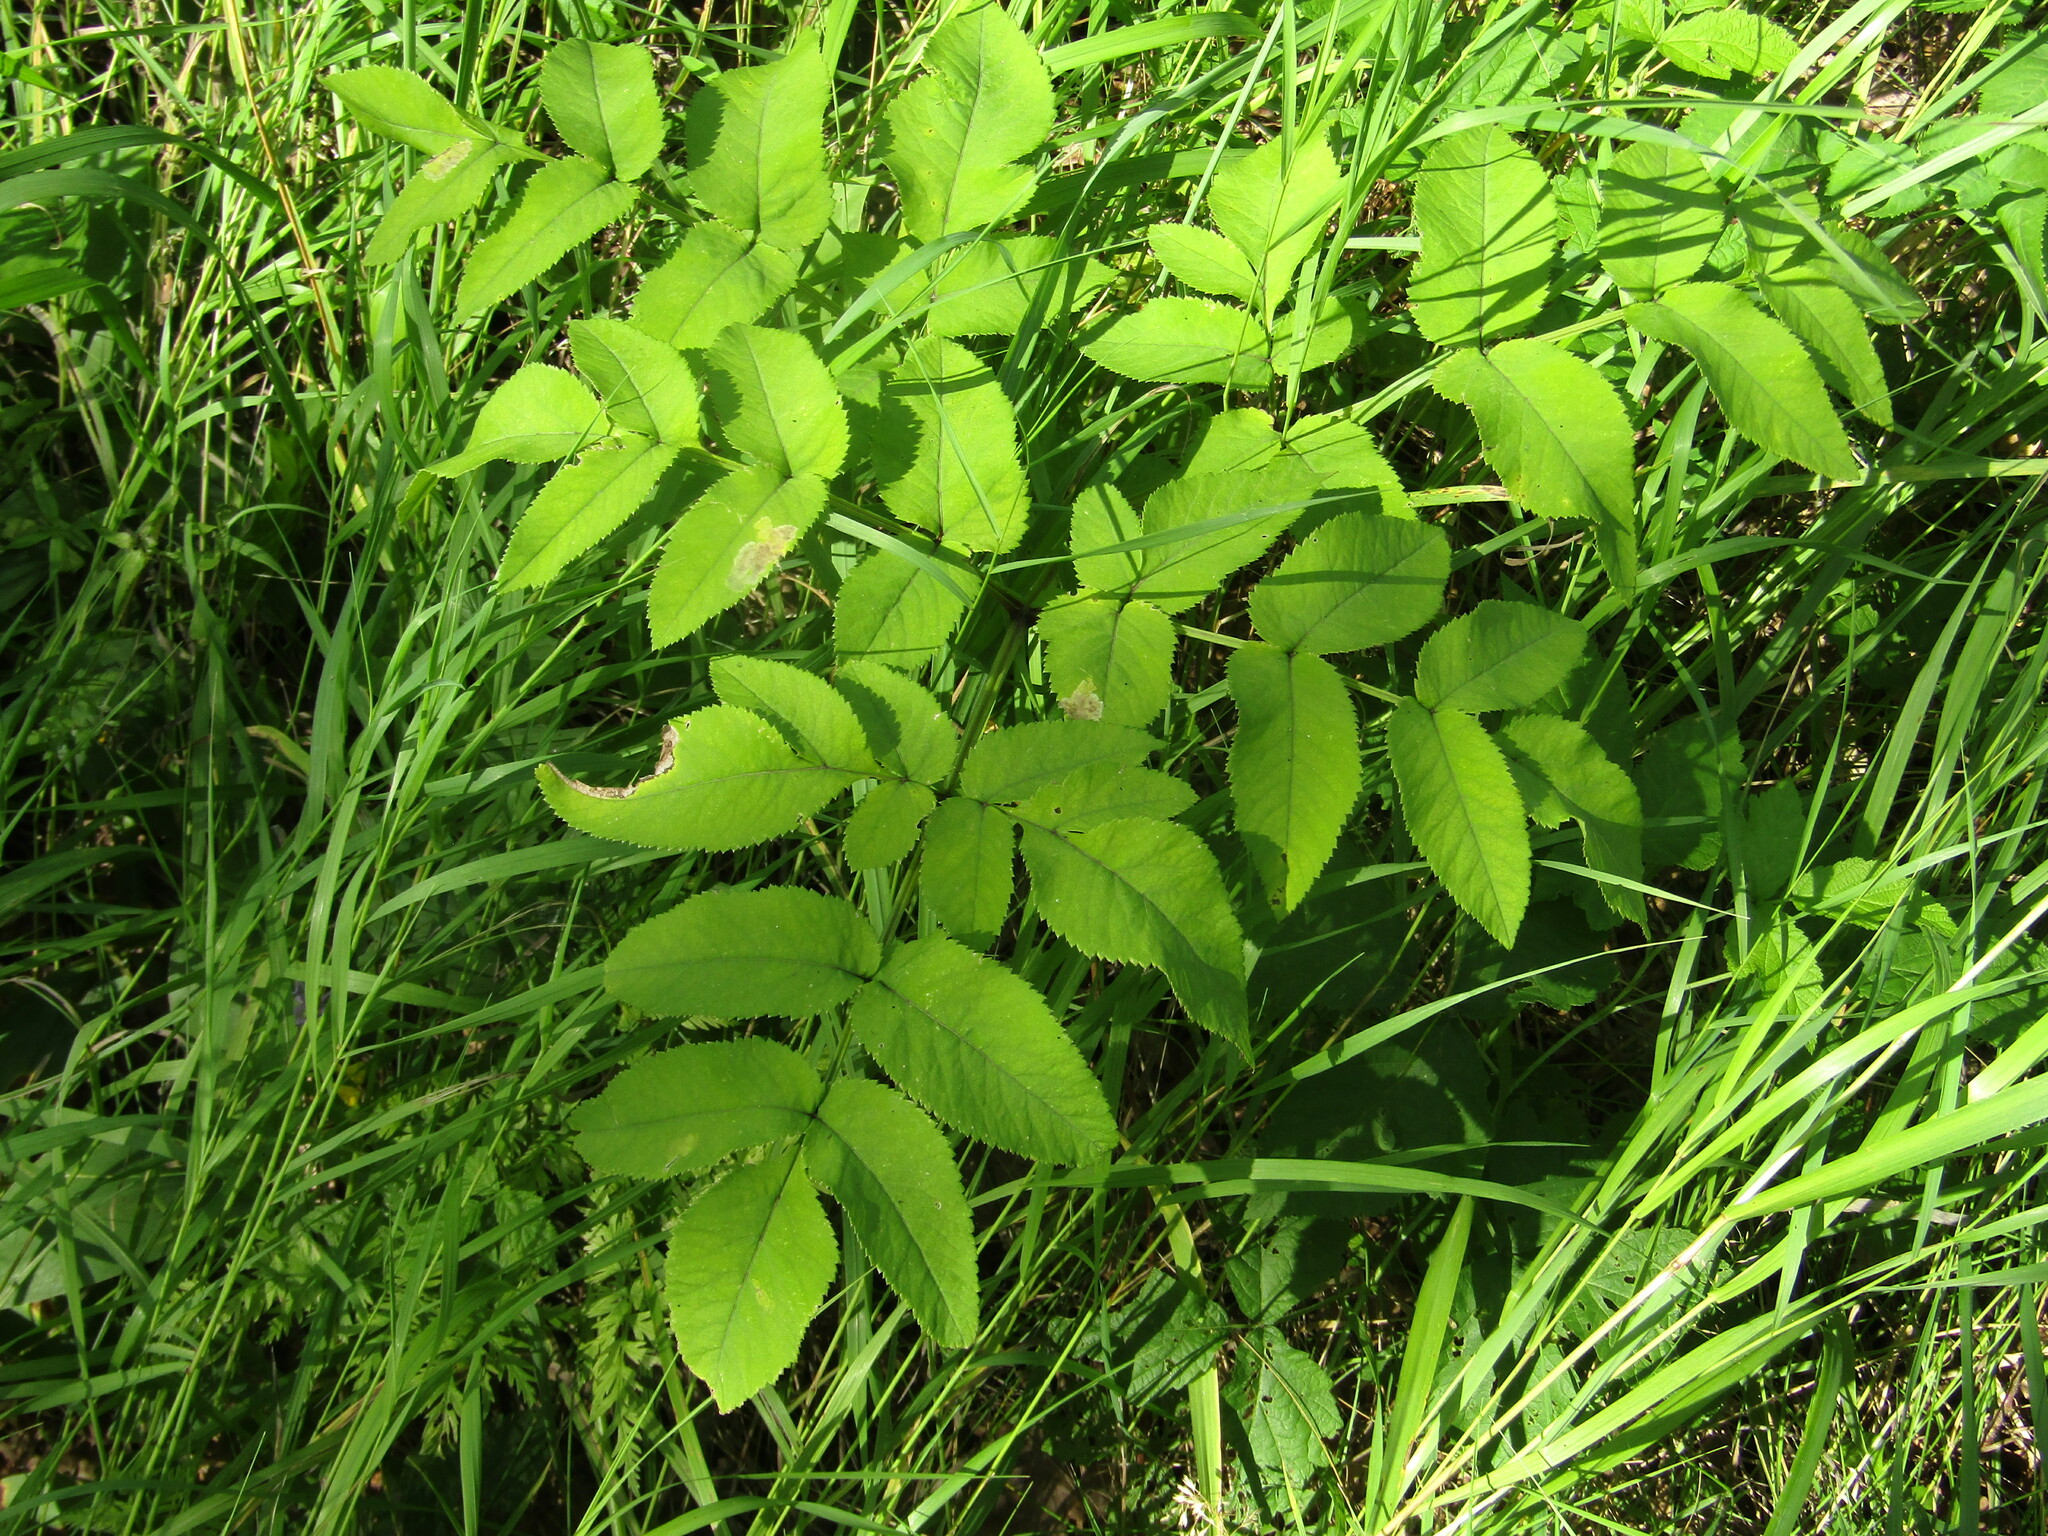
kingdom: Plantae
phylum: Tracheophyta
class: Magnoliopsida
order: Apiales
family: Apiaceae
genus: Angelica
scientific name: Angelica sylvestris
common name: Wild angelica
